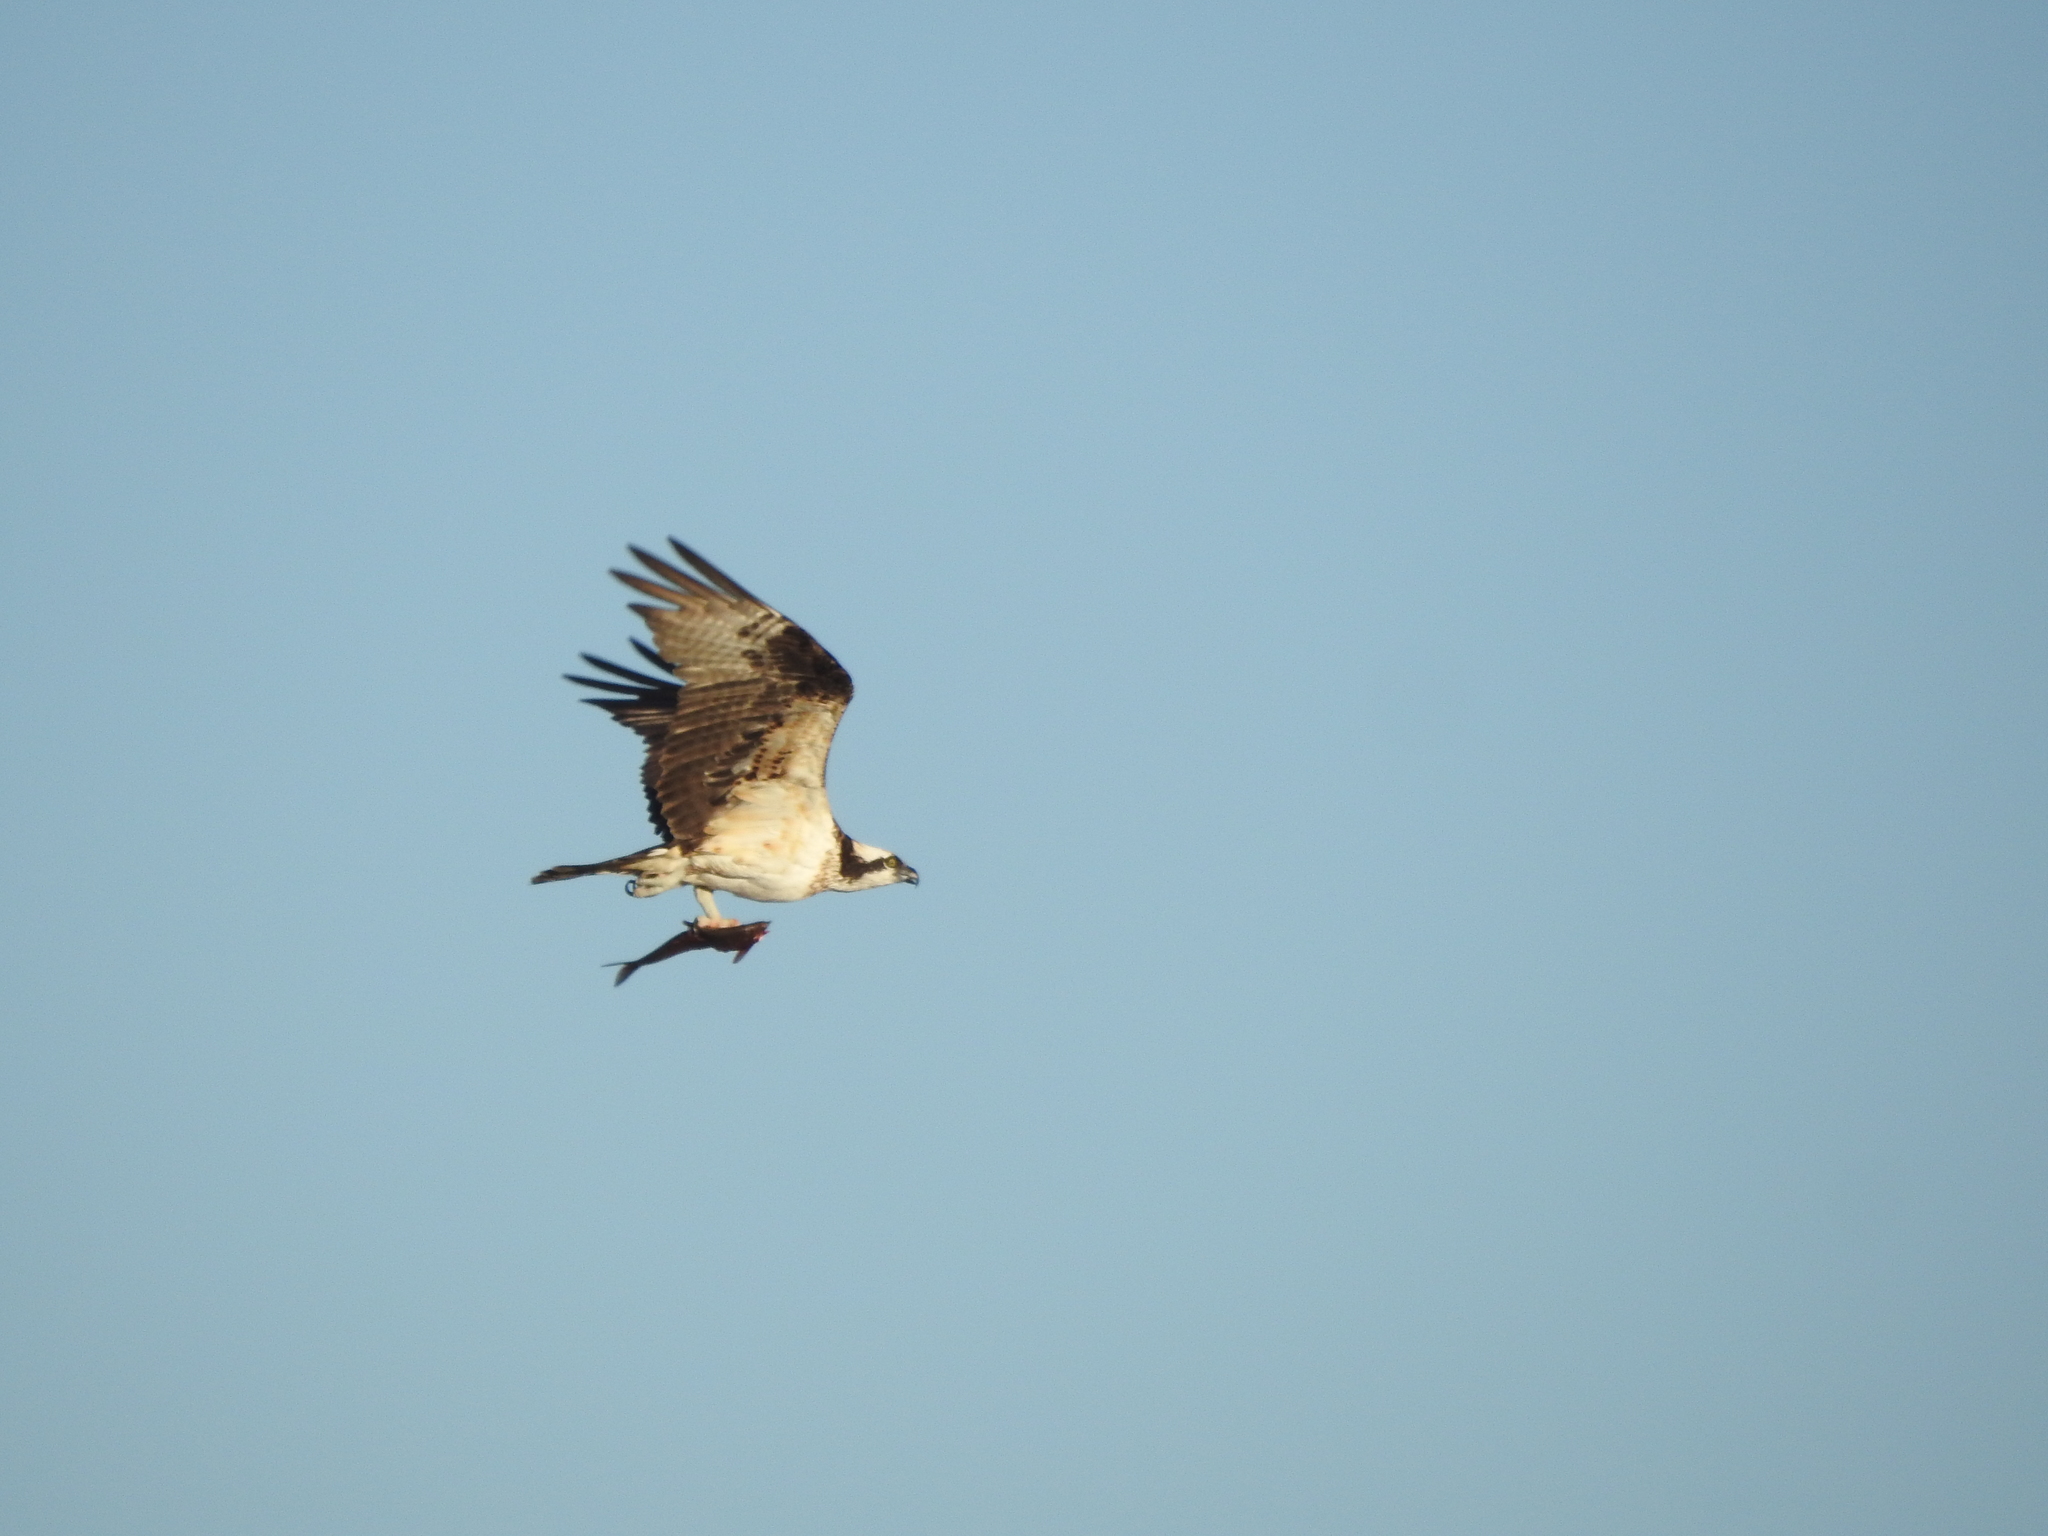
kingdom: Animalia
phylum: Chordata
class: Aves
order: Accipitriformes
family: Pandionidae
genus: Pandion
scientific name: Pandion haliaetus
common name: Osprey
